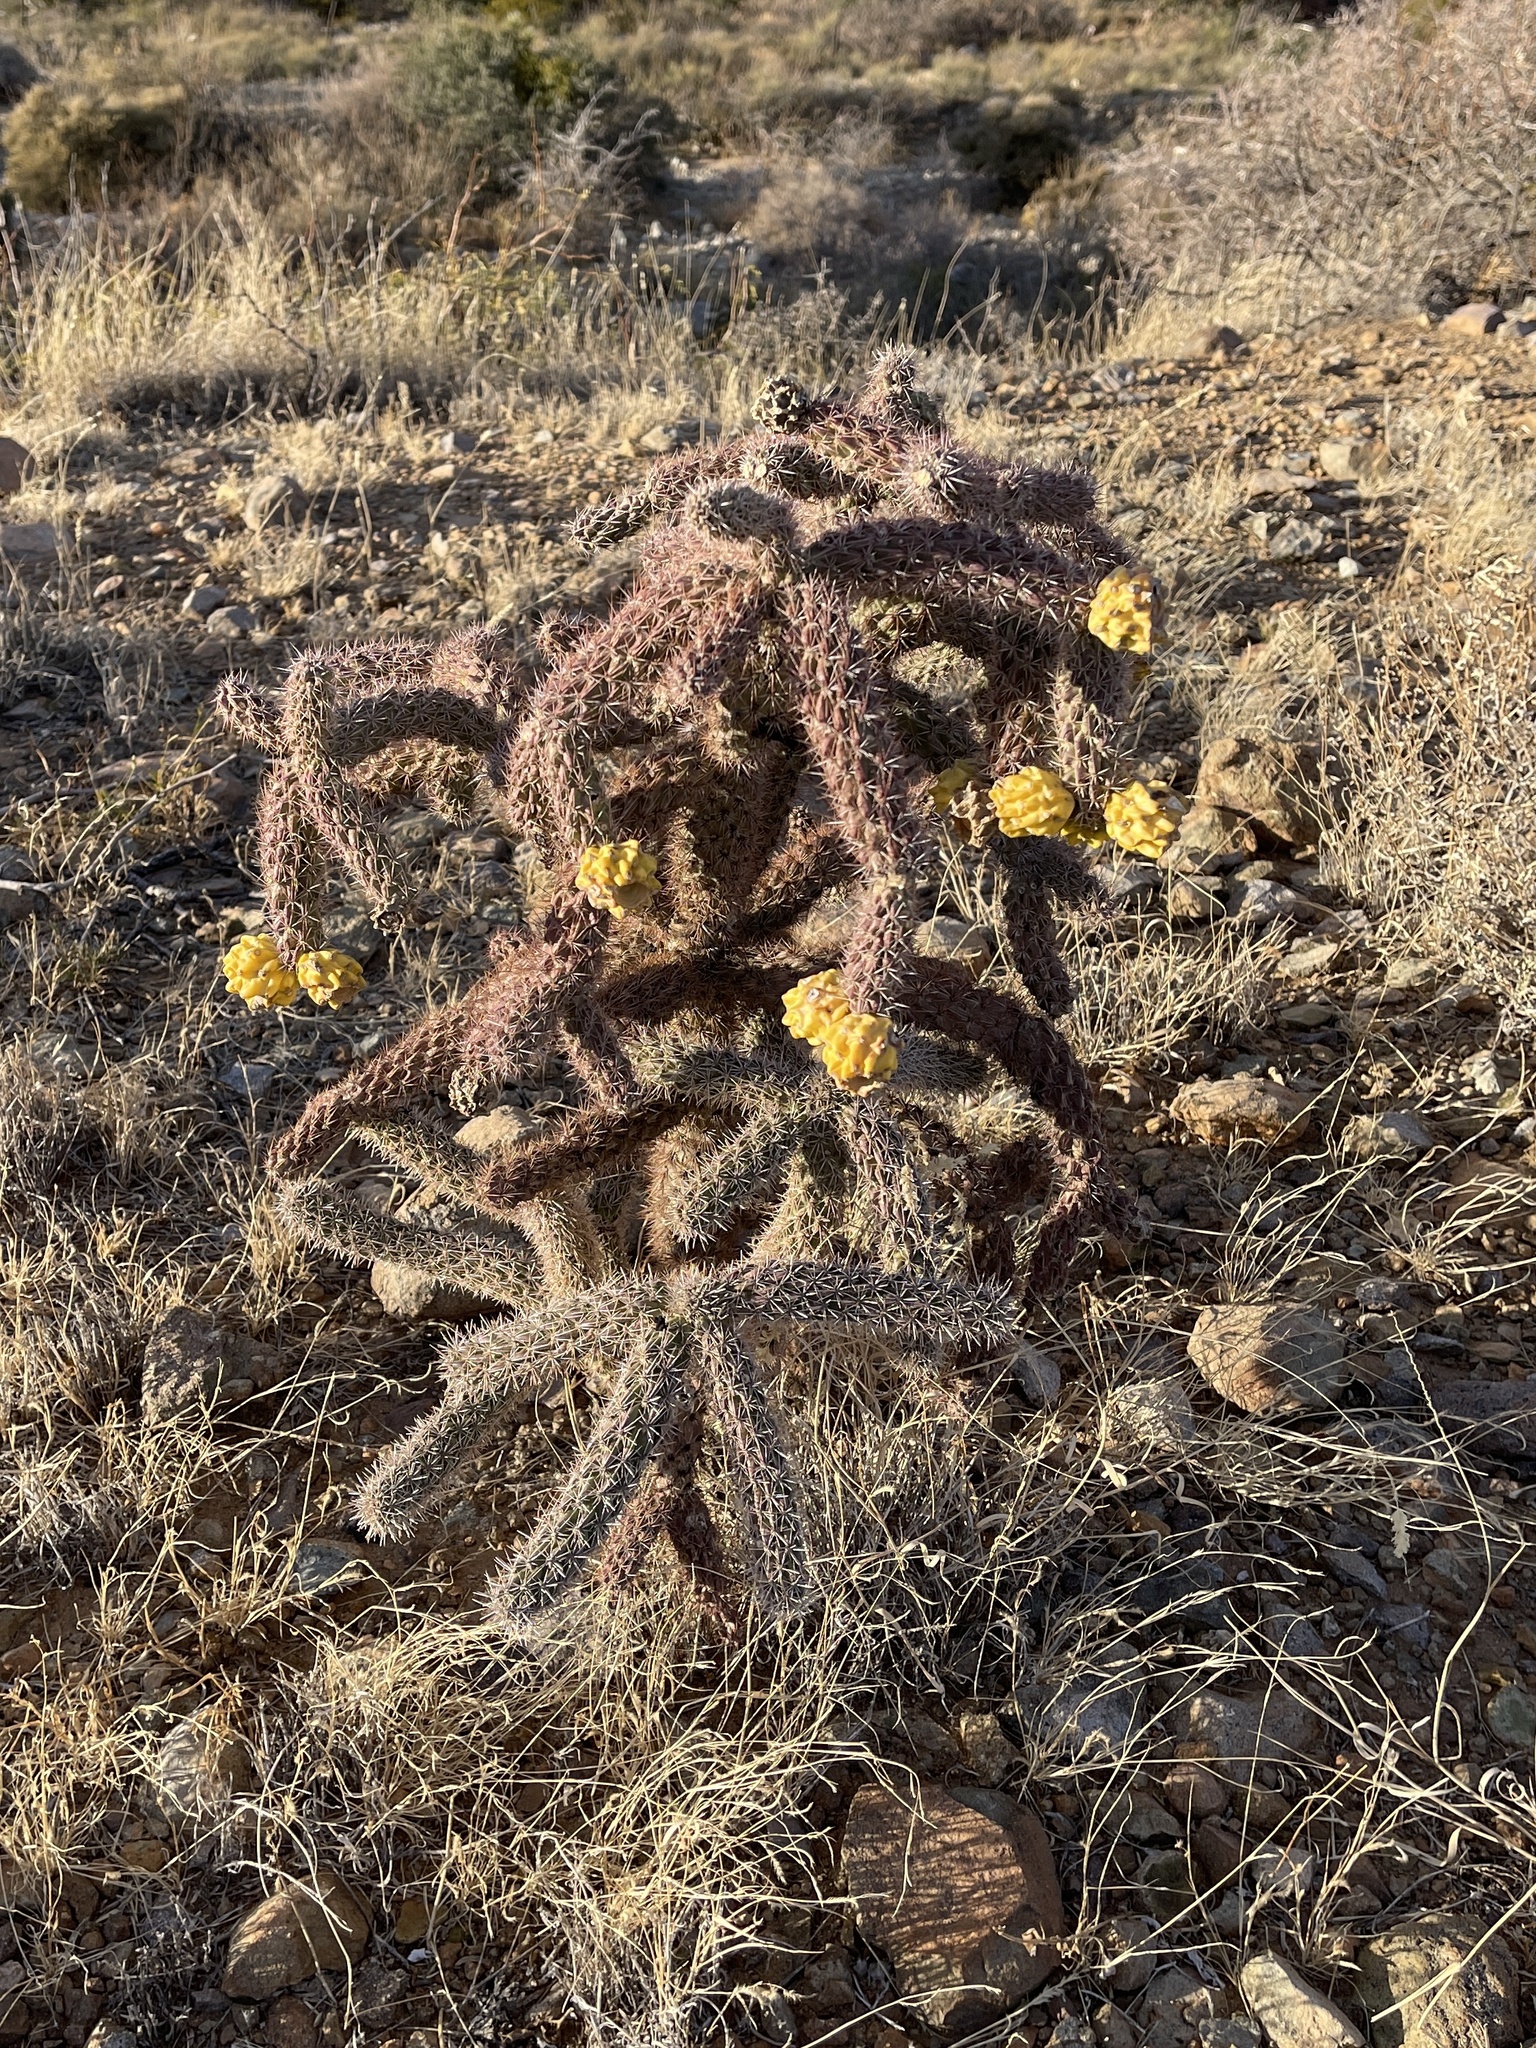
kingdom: Plantae
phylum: Tracheophyta
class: Magnoliopsida
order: Caryophyllales
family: Cactaceae
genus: Cylindropuntia
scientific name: Cylindropuntia imbricata
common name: Candelabrum cactus
